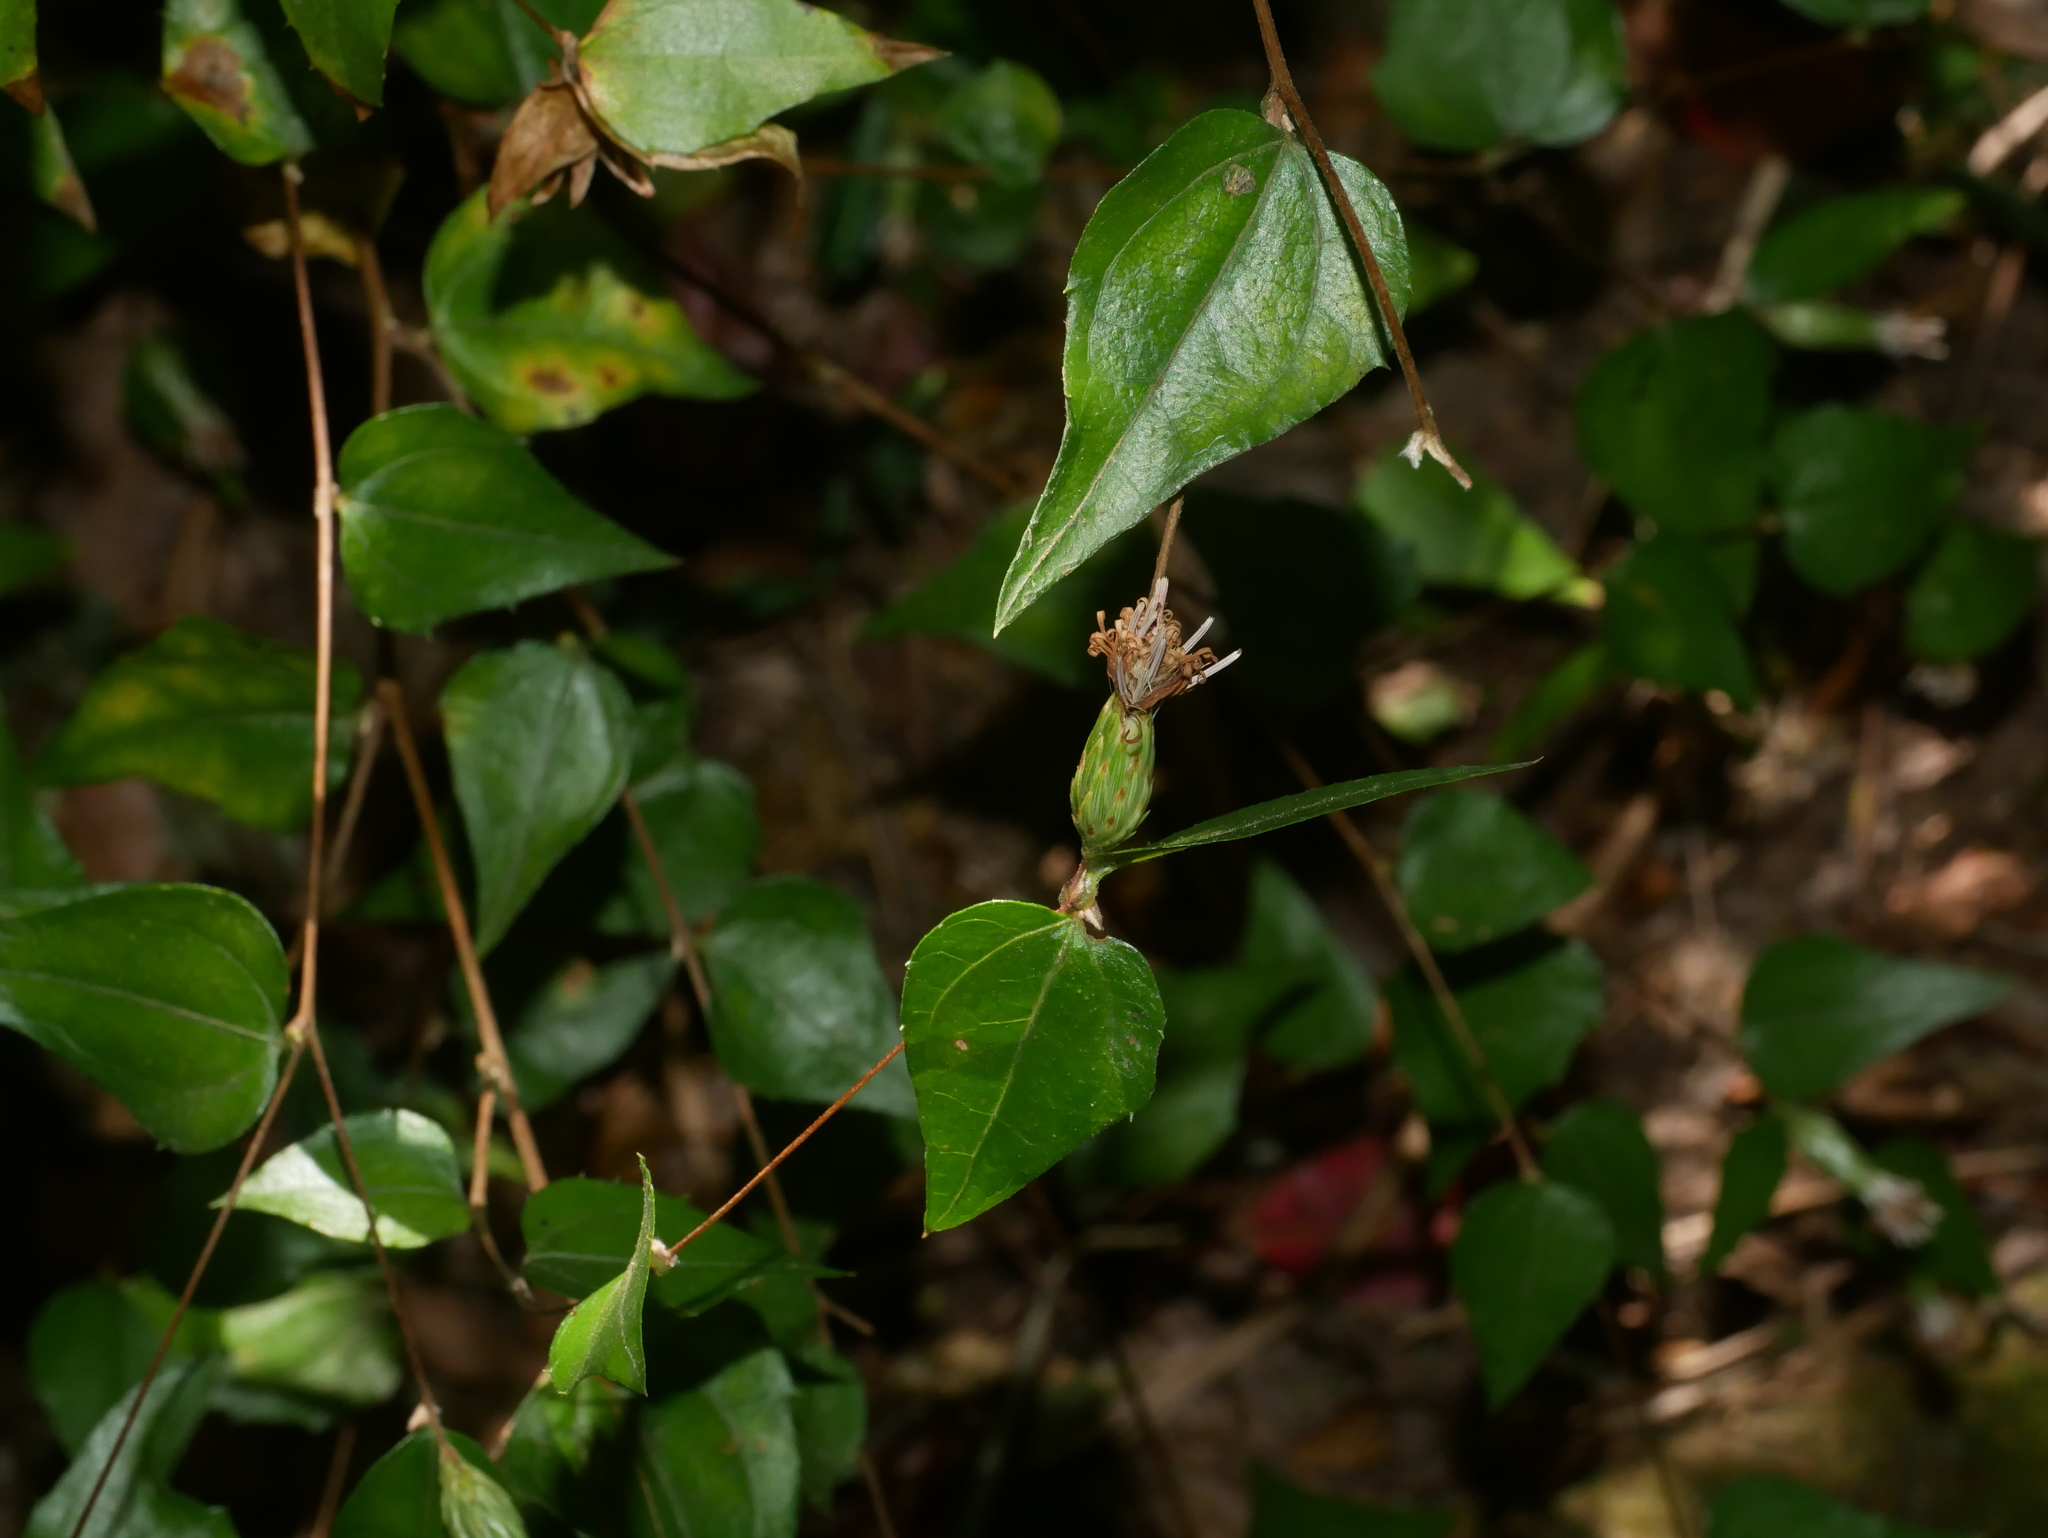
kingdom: Plantae
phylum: Tracheophyta
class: Magnoliopsida
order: Asterales
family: Asteraceae
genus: Pertya
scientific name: Pertya simozawai
